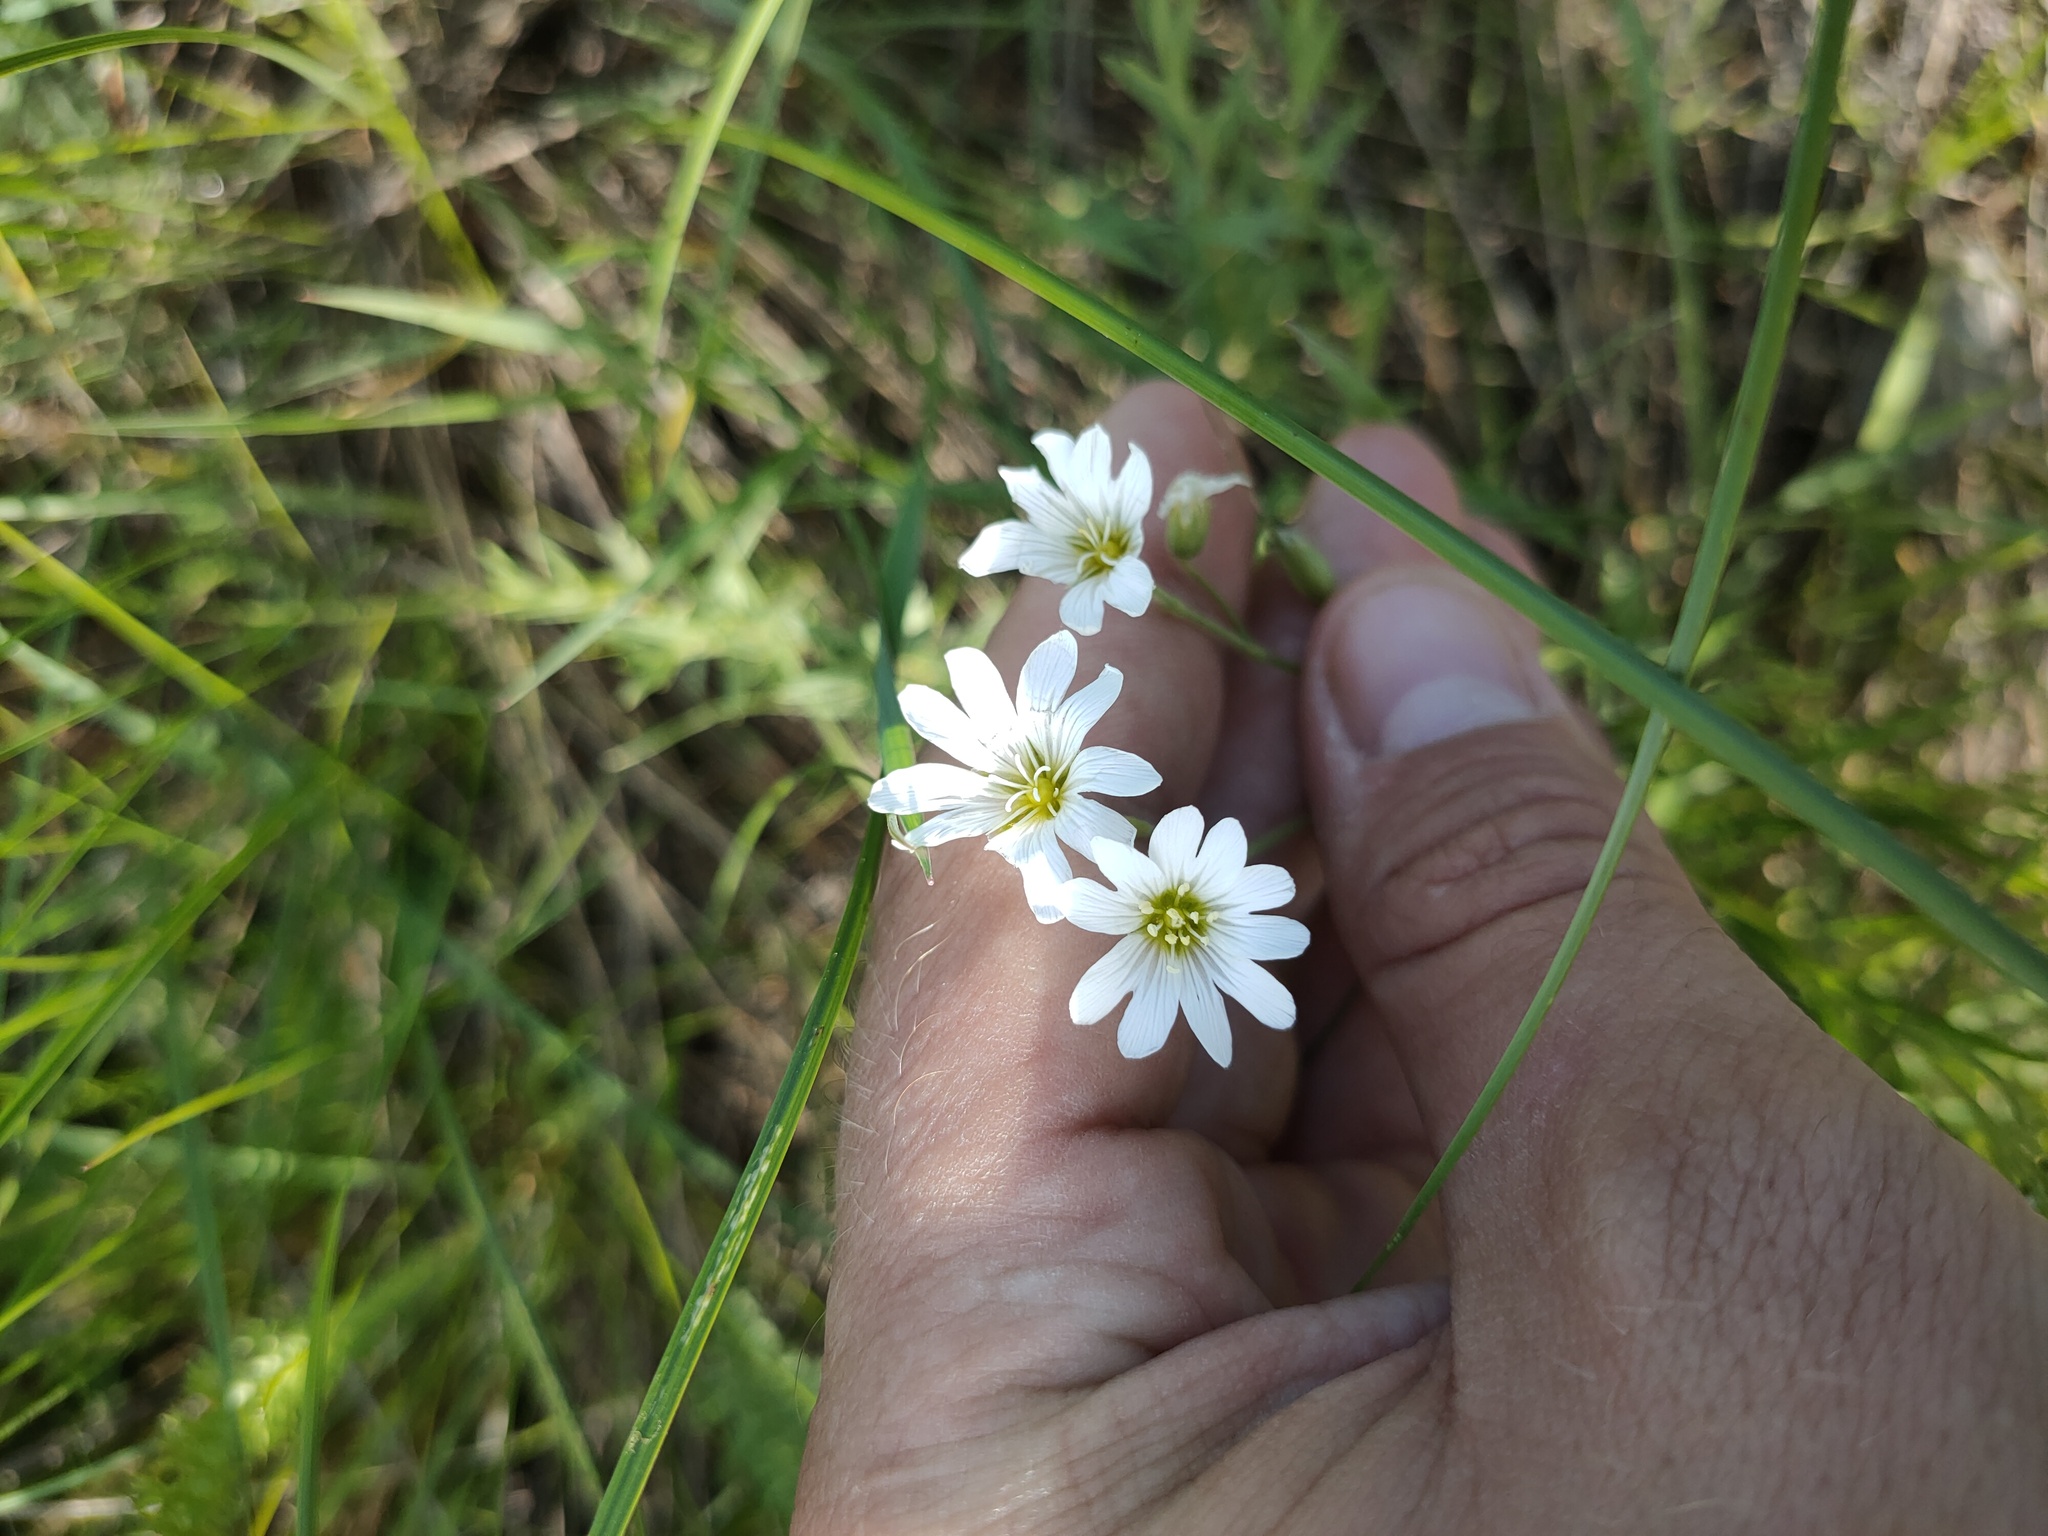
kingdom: Plantae
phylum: Tracheophyta
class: Magnoliopsida
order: Caryophyllales
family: Caryophyllaceae
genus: Cerastium
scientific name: Cerastium arvense
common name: Field mouse-ear
